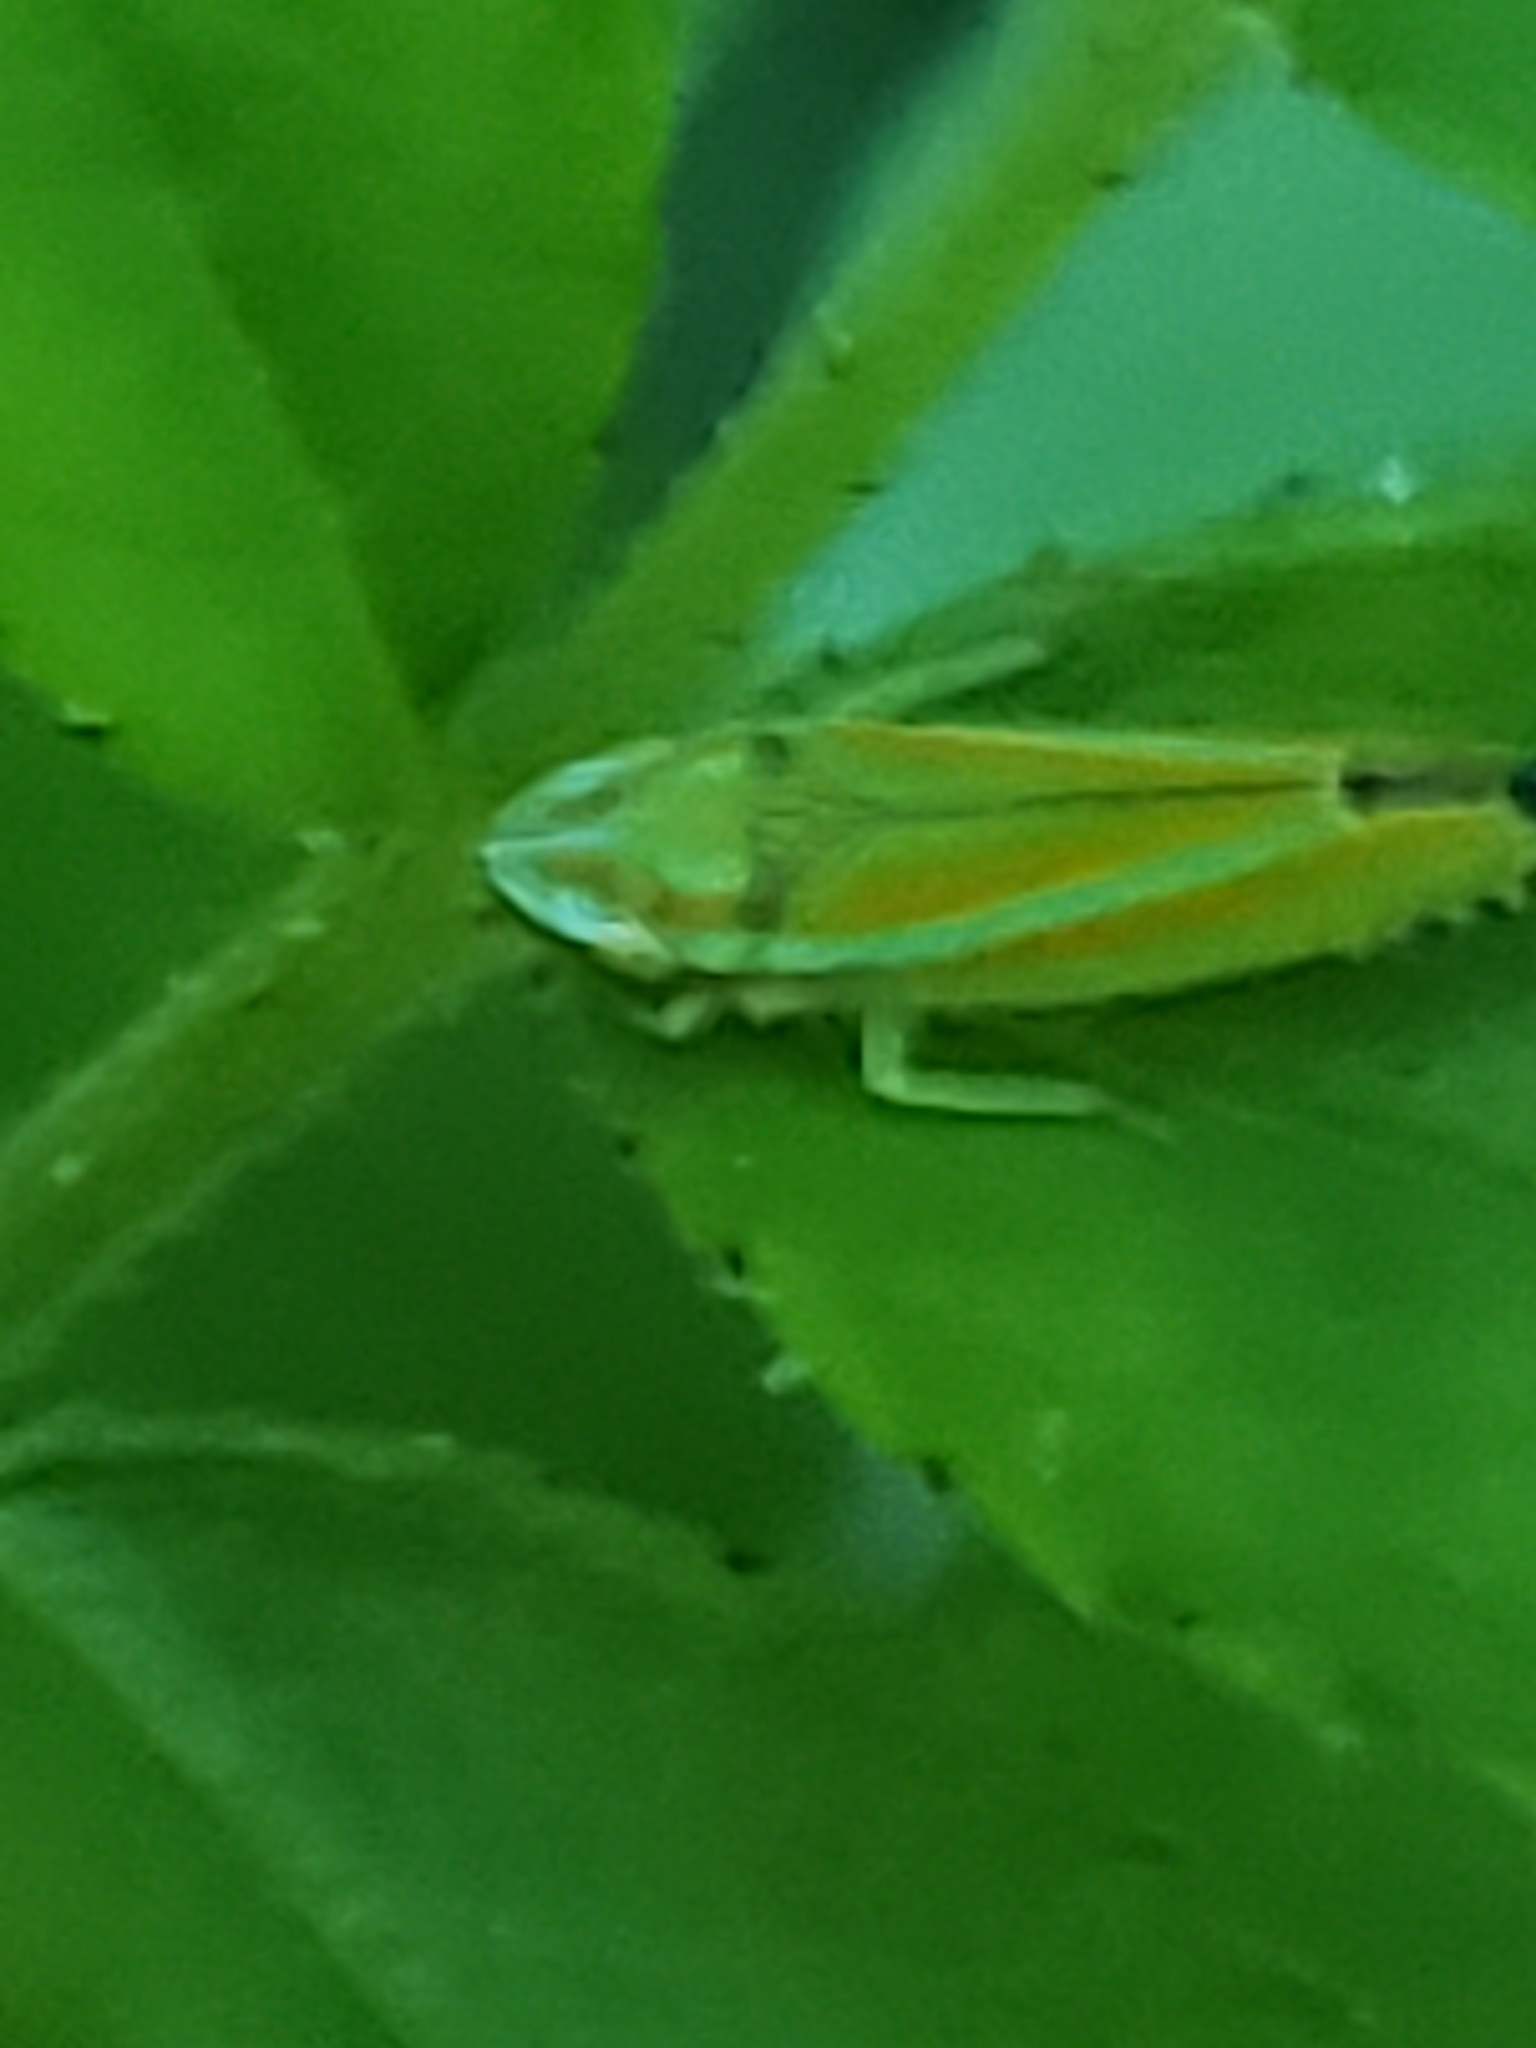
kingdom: Animalia
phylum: Arthropoda
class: Insecta
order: Hemiptera
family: Cicadellidae
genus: Graphocephala
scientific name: Graphocephala versuta
